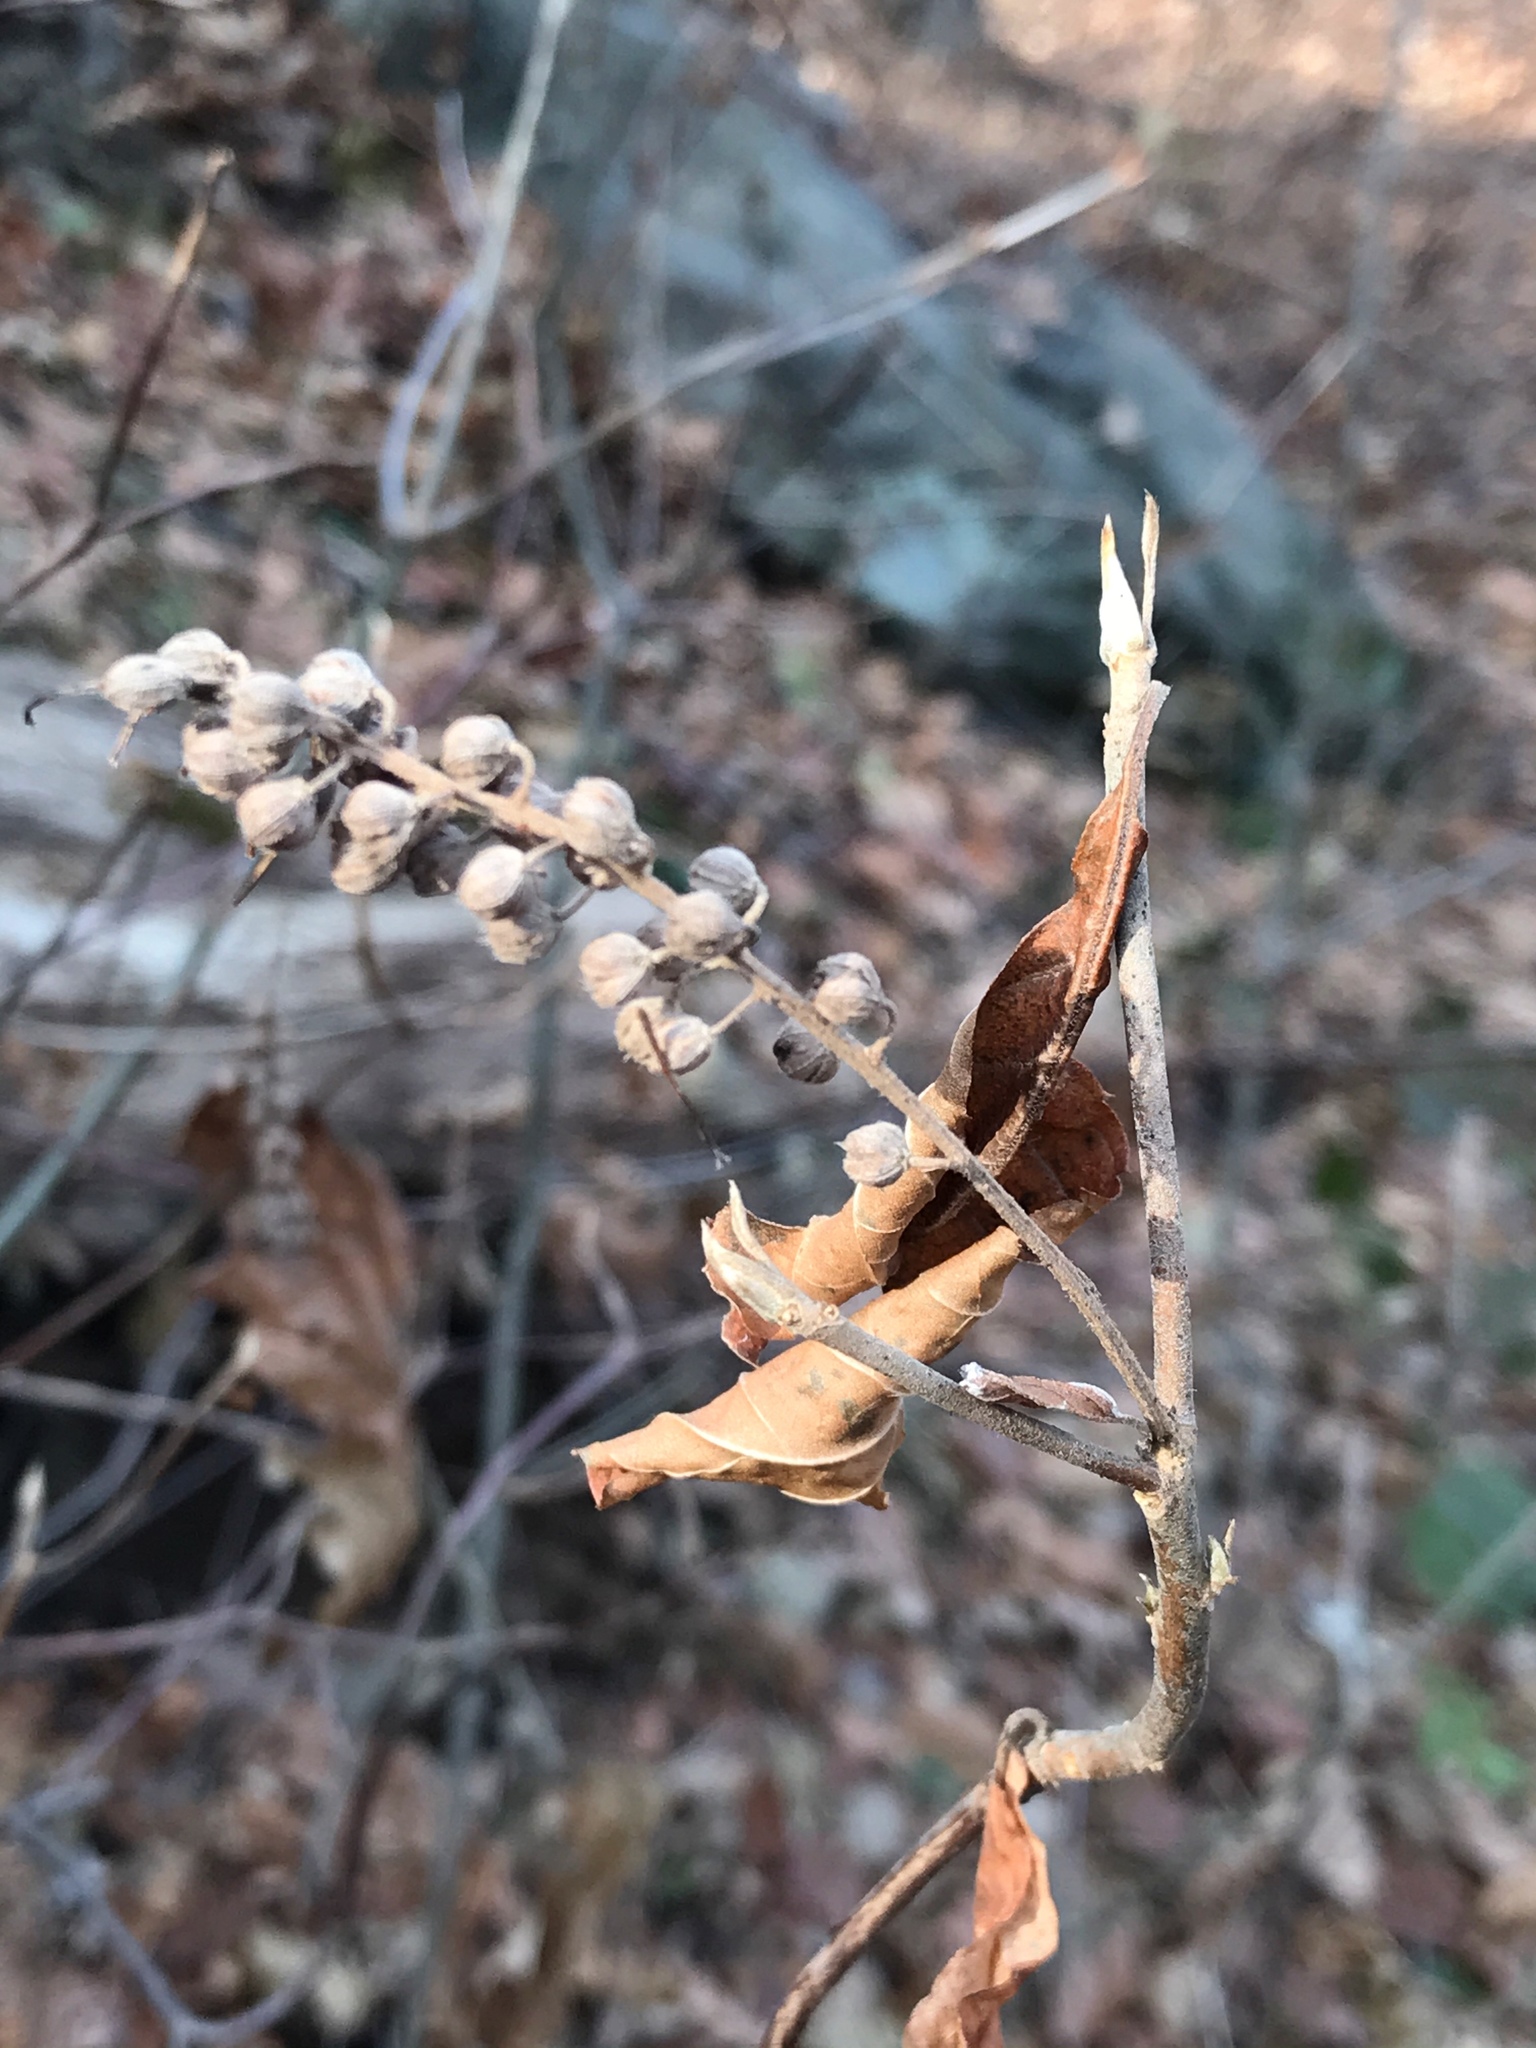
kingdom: Plantae
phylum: Tracheophyta
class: Magnoliopsida
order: Ericales
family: Clethraceae
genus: Clethra
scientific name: Clethra alnifolia
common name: Sweet pepperbush
